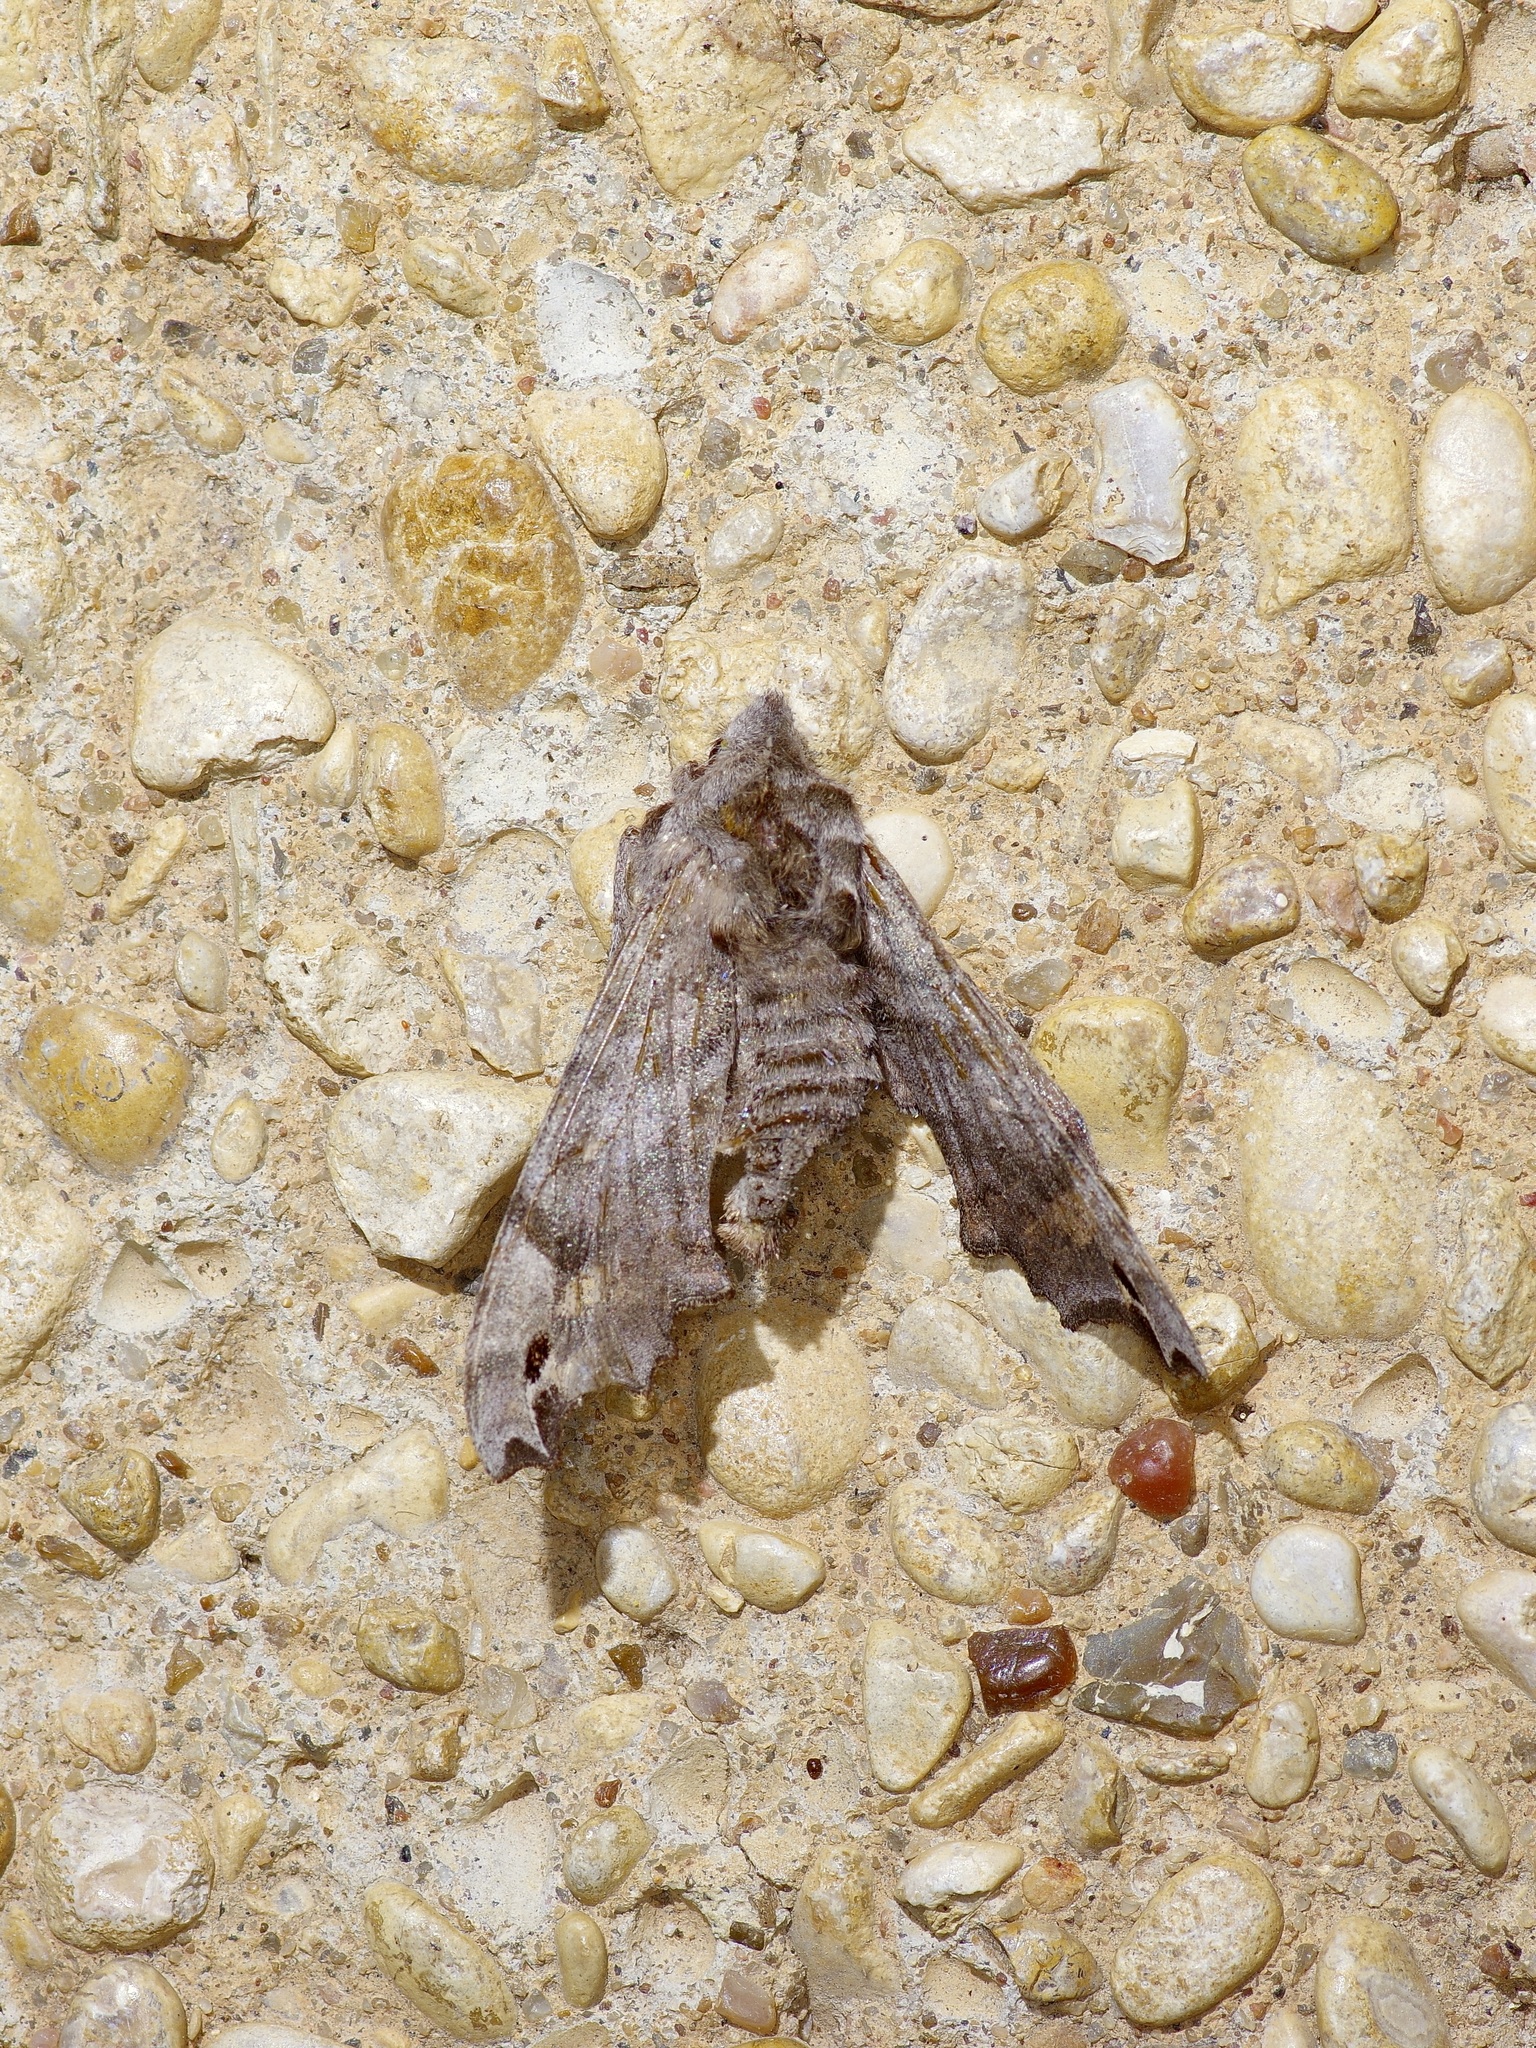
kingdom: Animalia
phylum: Arthropoda
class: Insecta
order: Lepidoptera
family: Sphingidae
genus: Deidamia
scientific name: Deidamia inscriptum
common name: Lettered sphinx
